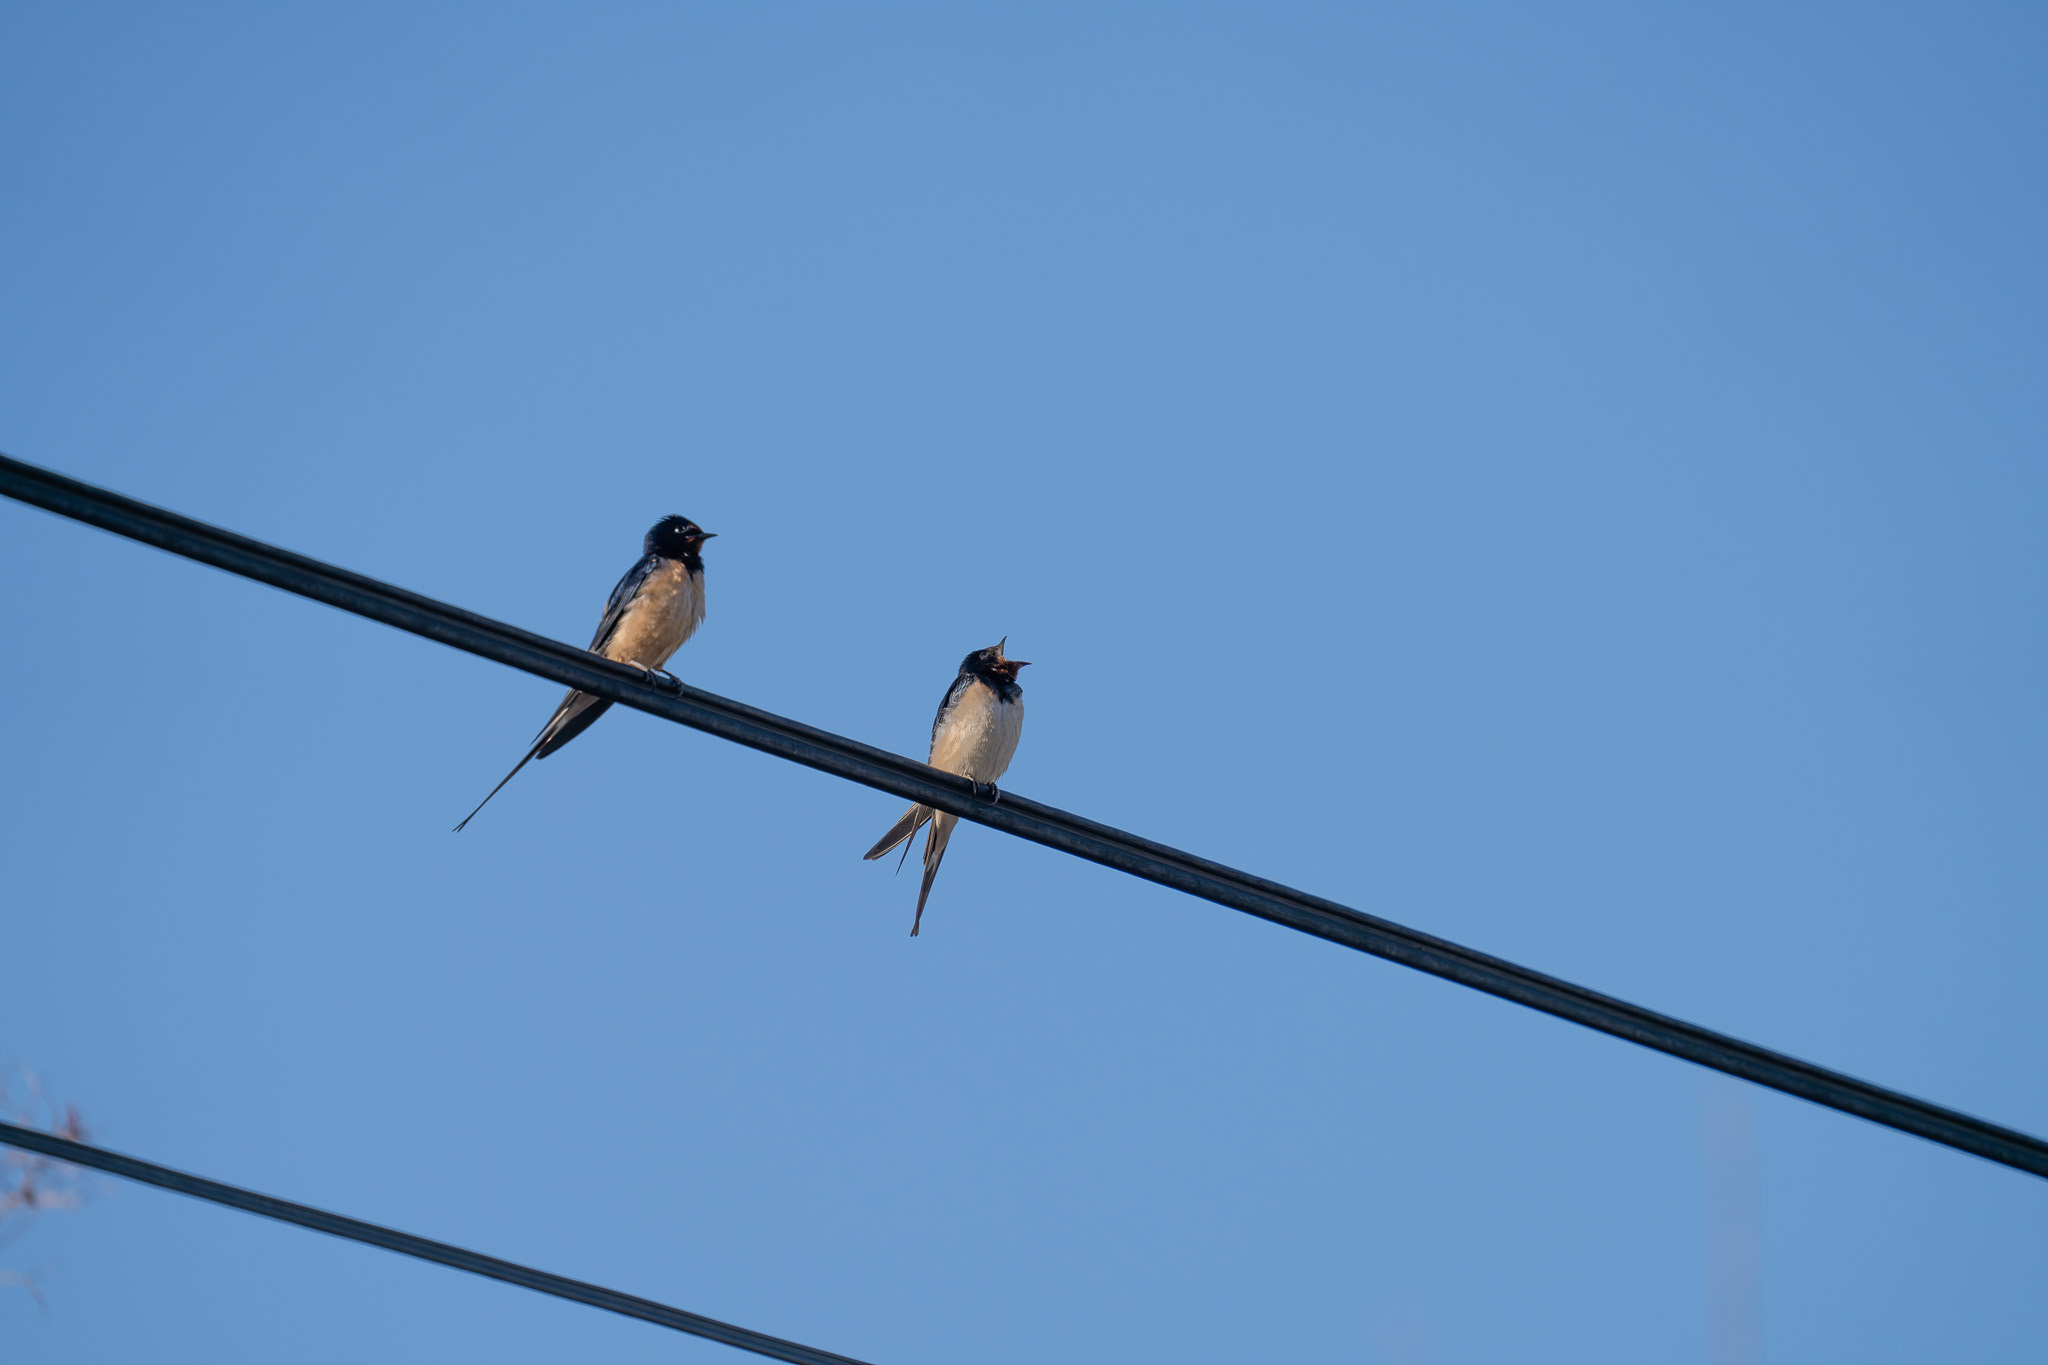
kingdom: Animalia
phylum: Chordata
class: Aves
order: Passeriformes
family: Hirundinidae
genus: Hirundo
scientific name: Hirundo rustica
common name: Barn swallow
